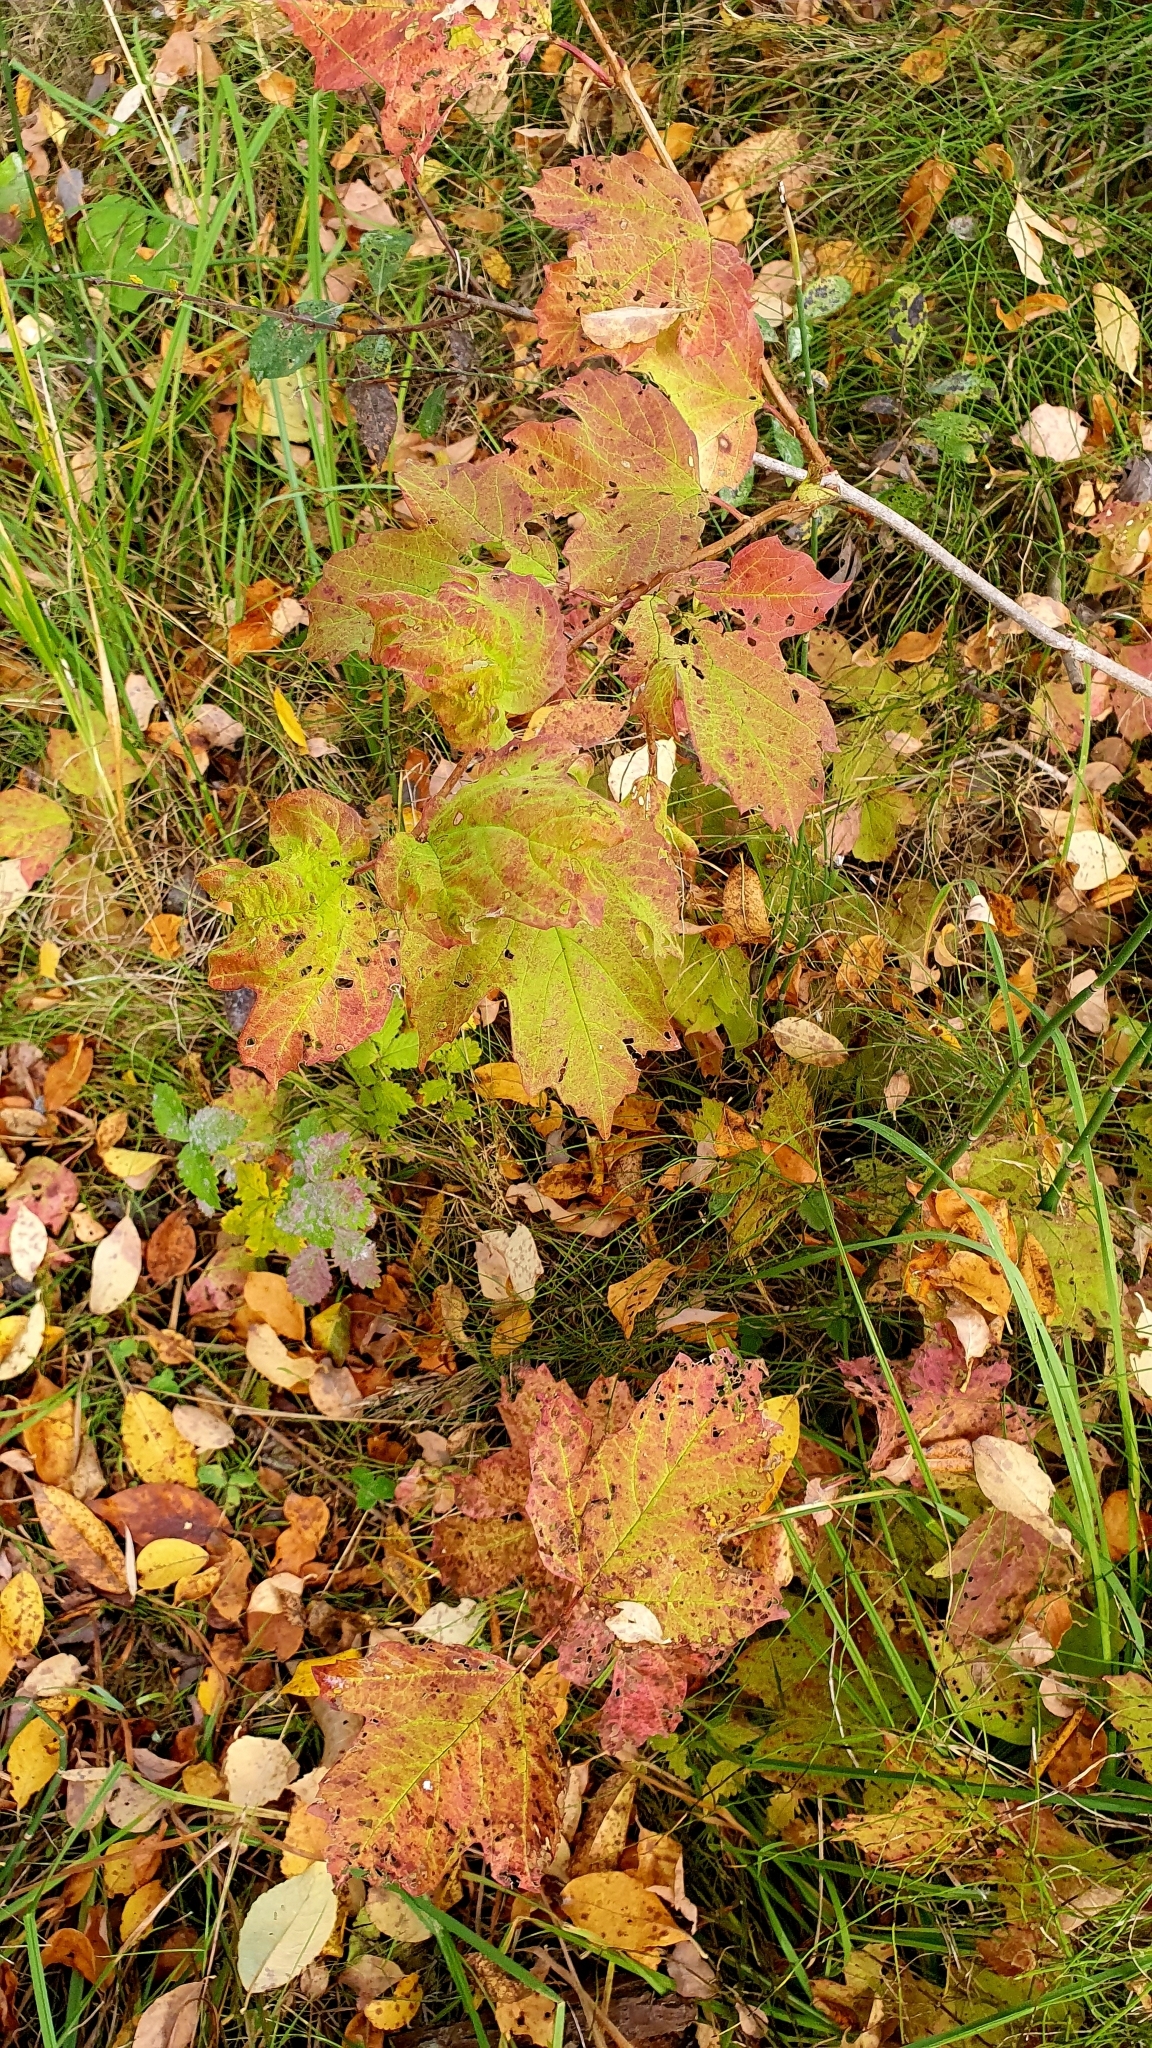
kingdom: Plantae
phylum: Tracheophyta
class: Magnoliopsida
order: Dipsacales
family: Viburnaceae
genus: Viburnum
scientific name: Viburnum opulus
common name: Guelder-rose
